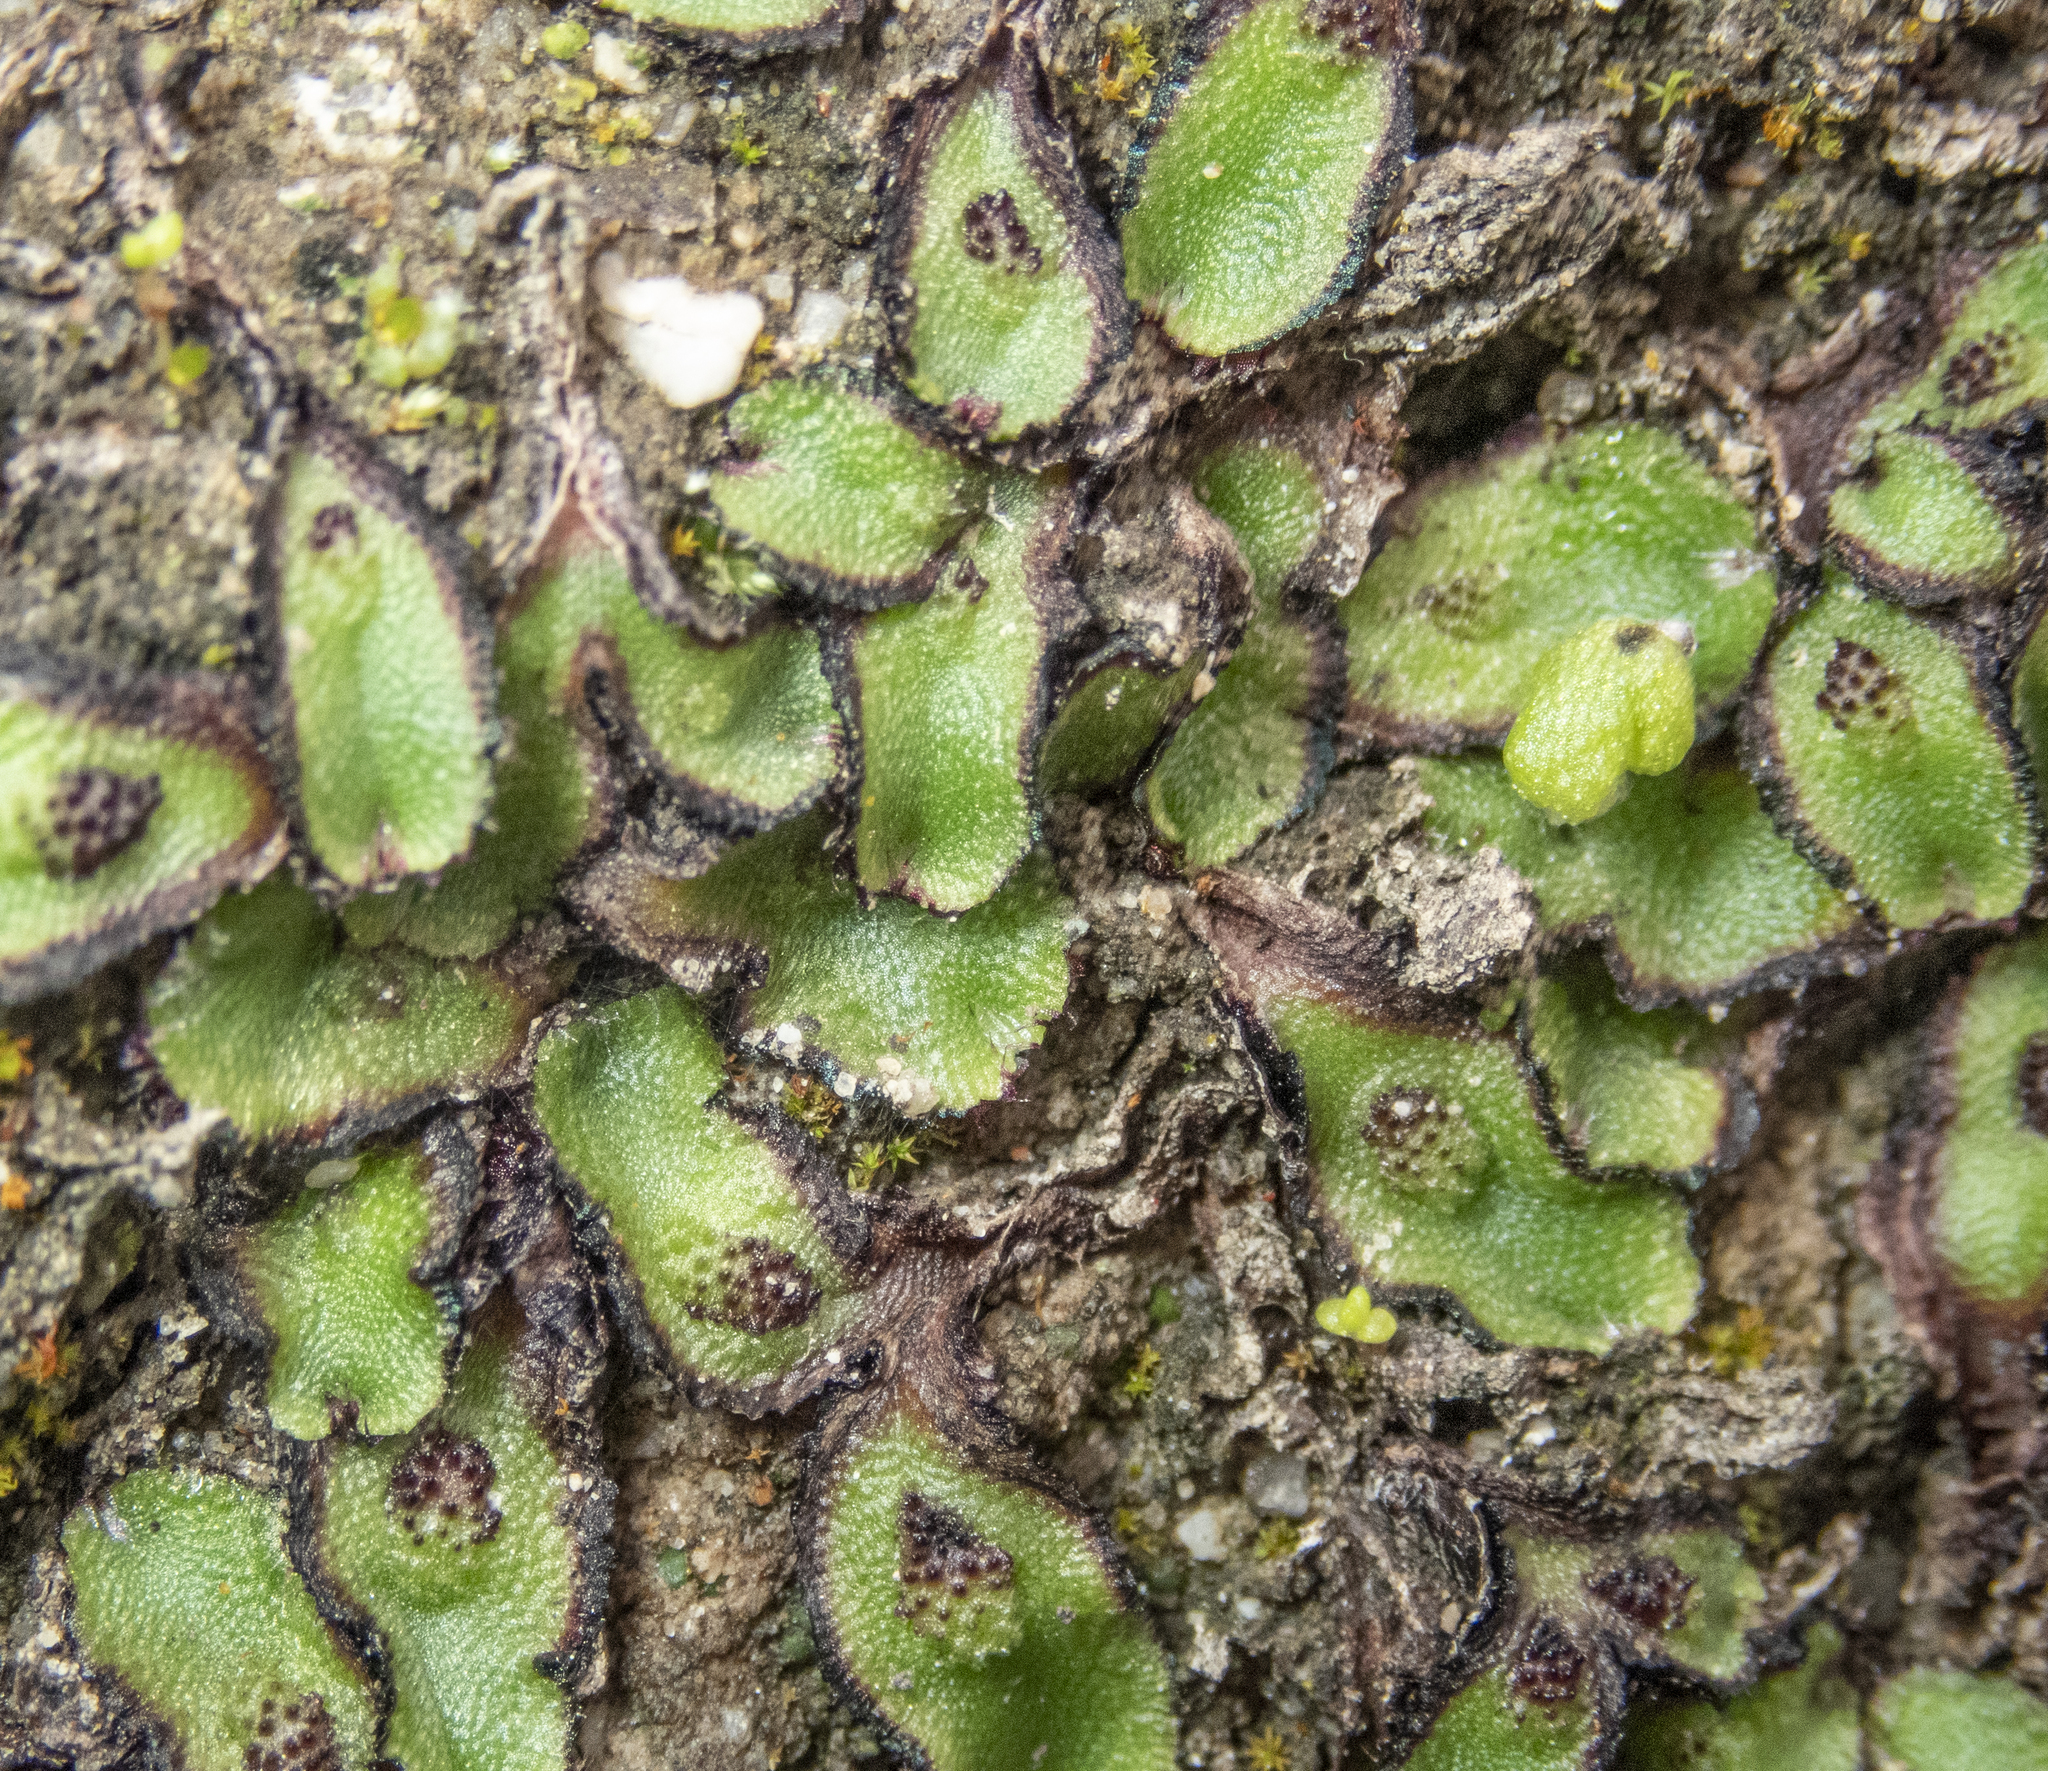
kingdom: Plantae
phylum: Marchantiophyta
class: Marchantiopsida
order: Marchantiales
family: Aytoniaceae
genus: Asterella
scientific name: Asterella californica
